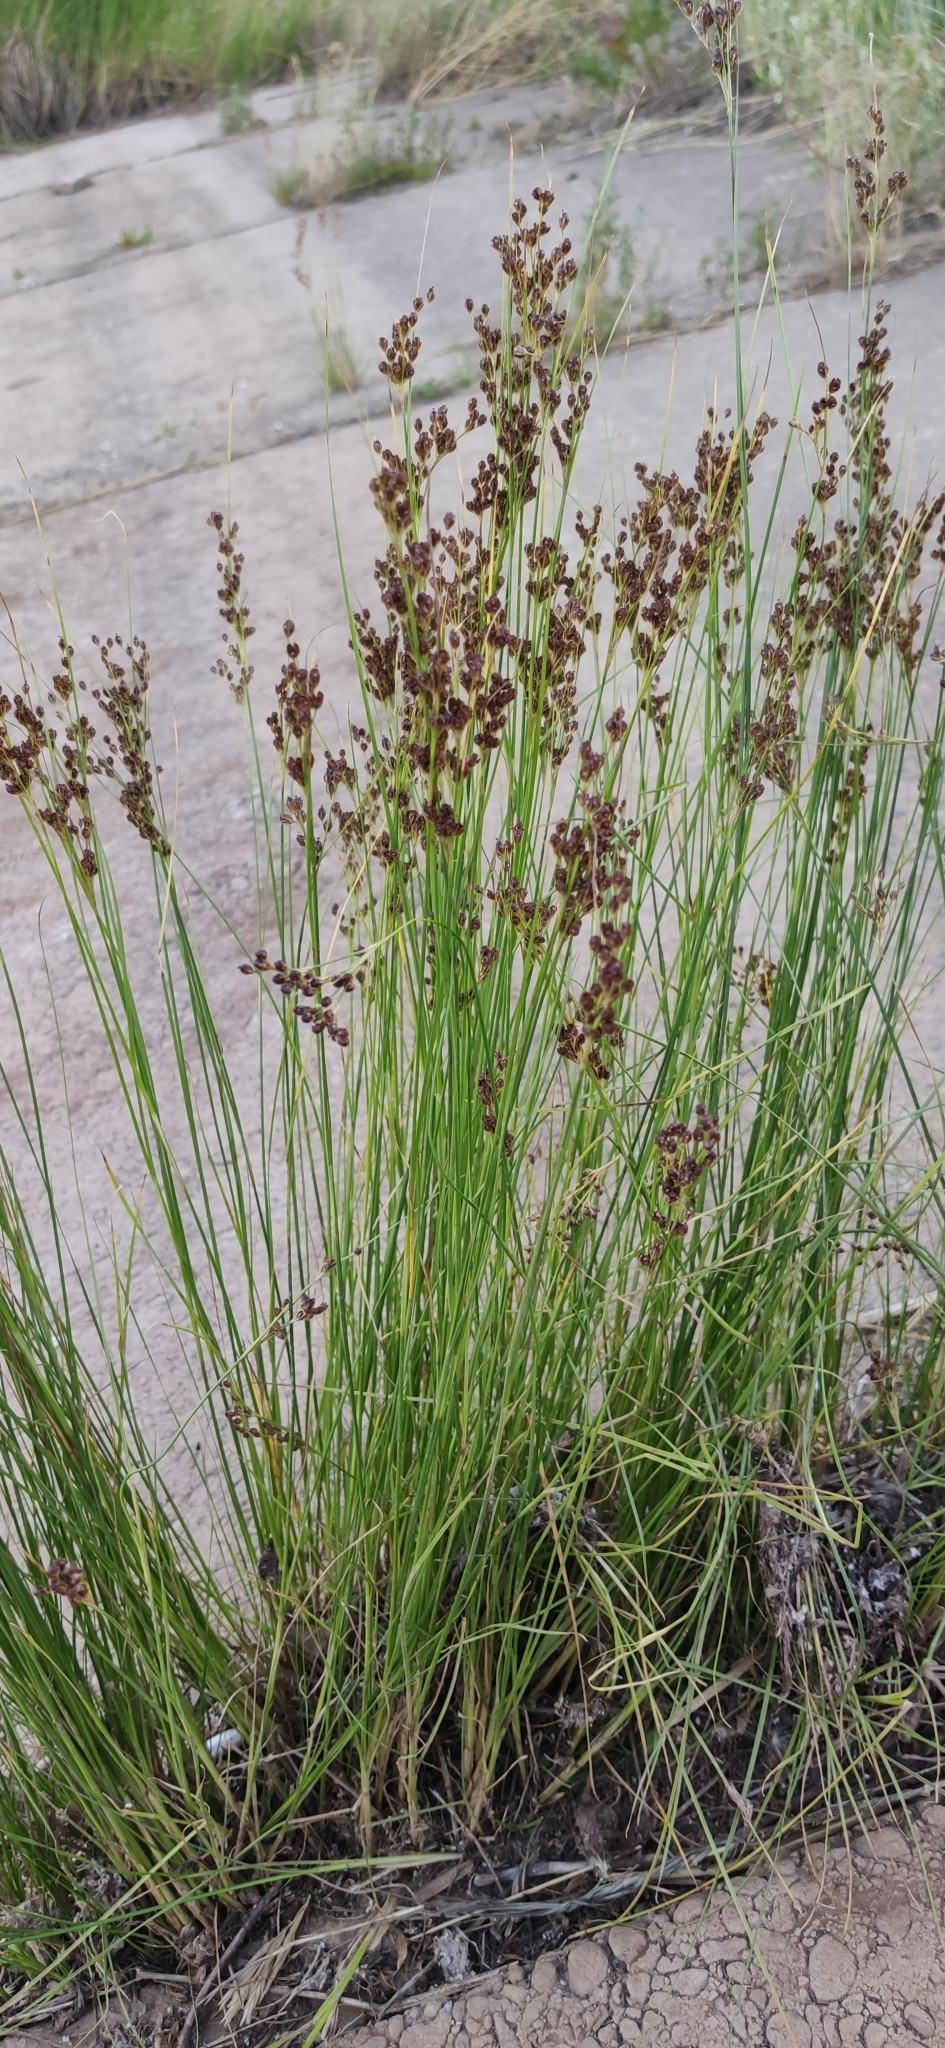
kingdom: Plantae
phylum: Tracheophyta
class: Liliopsida
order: Poales
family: Juncaceae
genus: Juncus
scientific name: Juncus compressus
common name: Round-fruited rush
